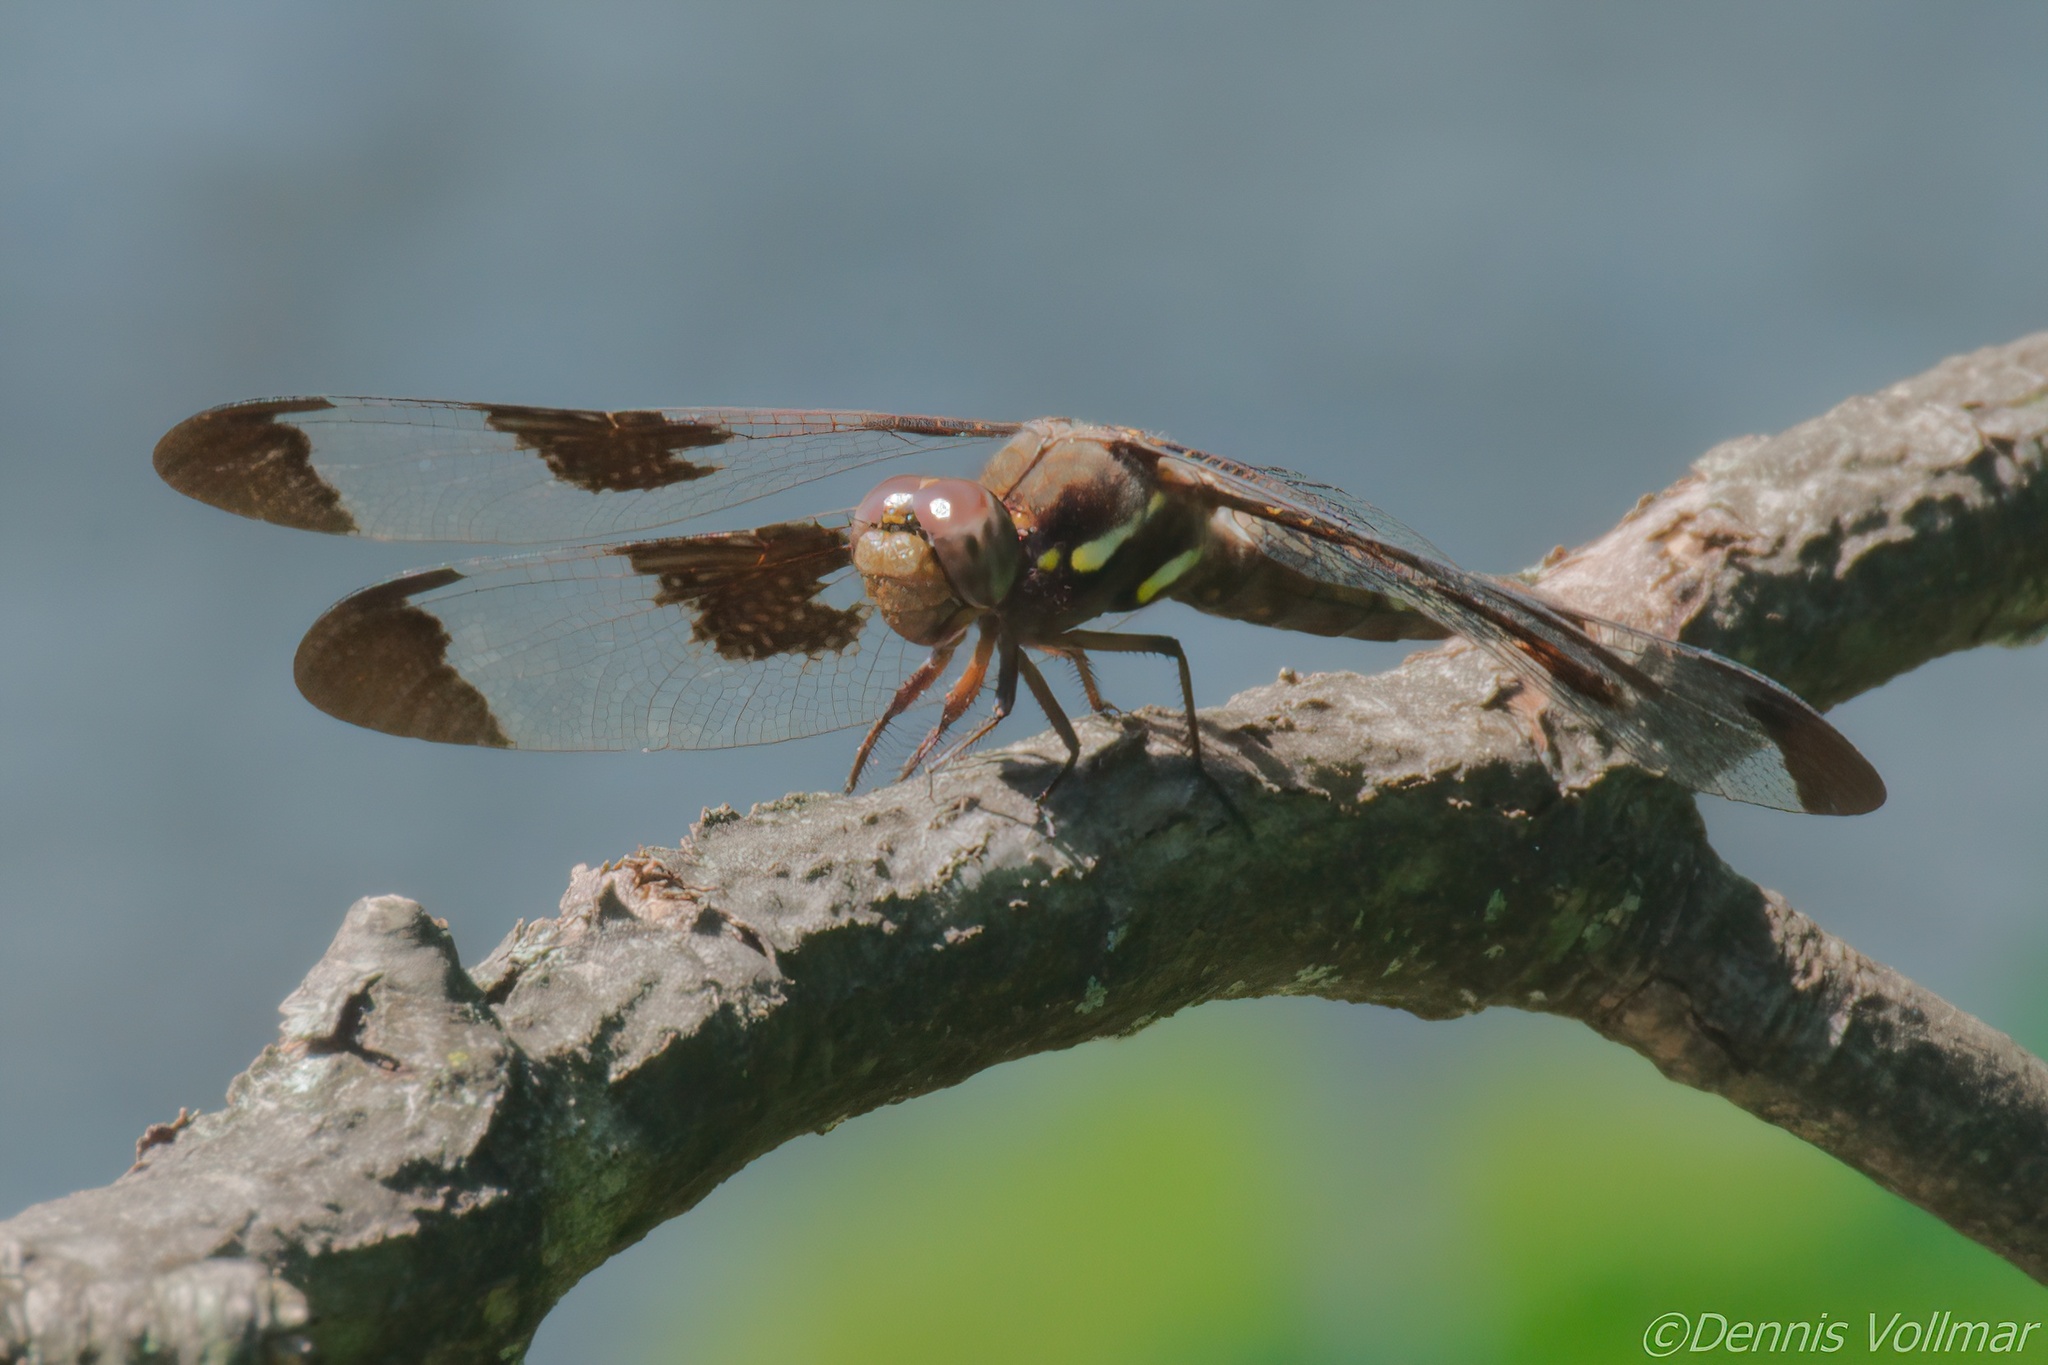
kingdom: Animalia
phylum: Arthropoda
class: Insecta
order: Odonata
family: Libellulidae
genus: Plathemis
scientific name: Plathemis lydia
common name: Common whitetail
